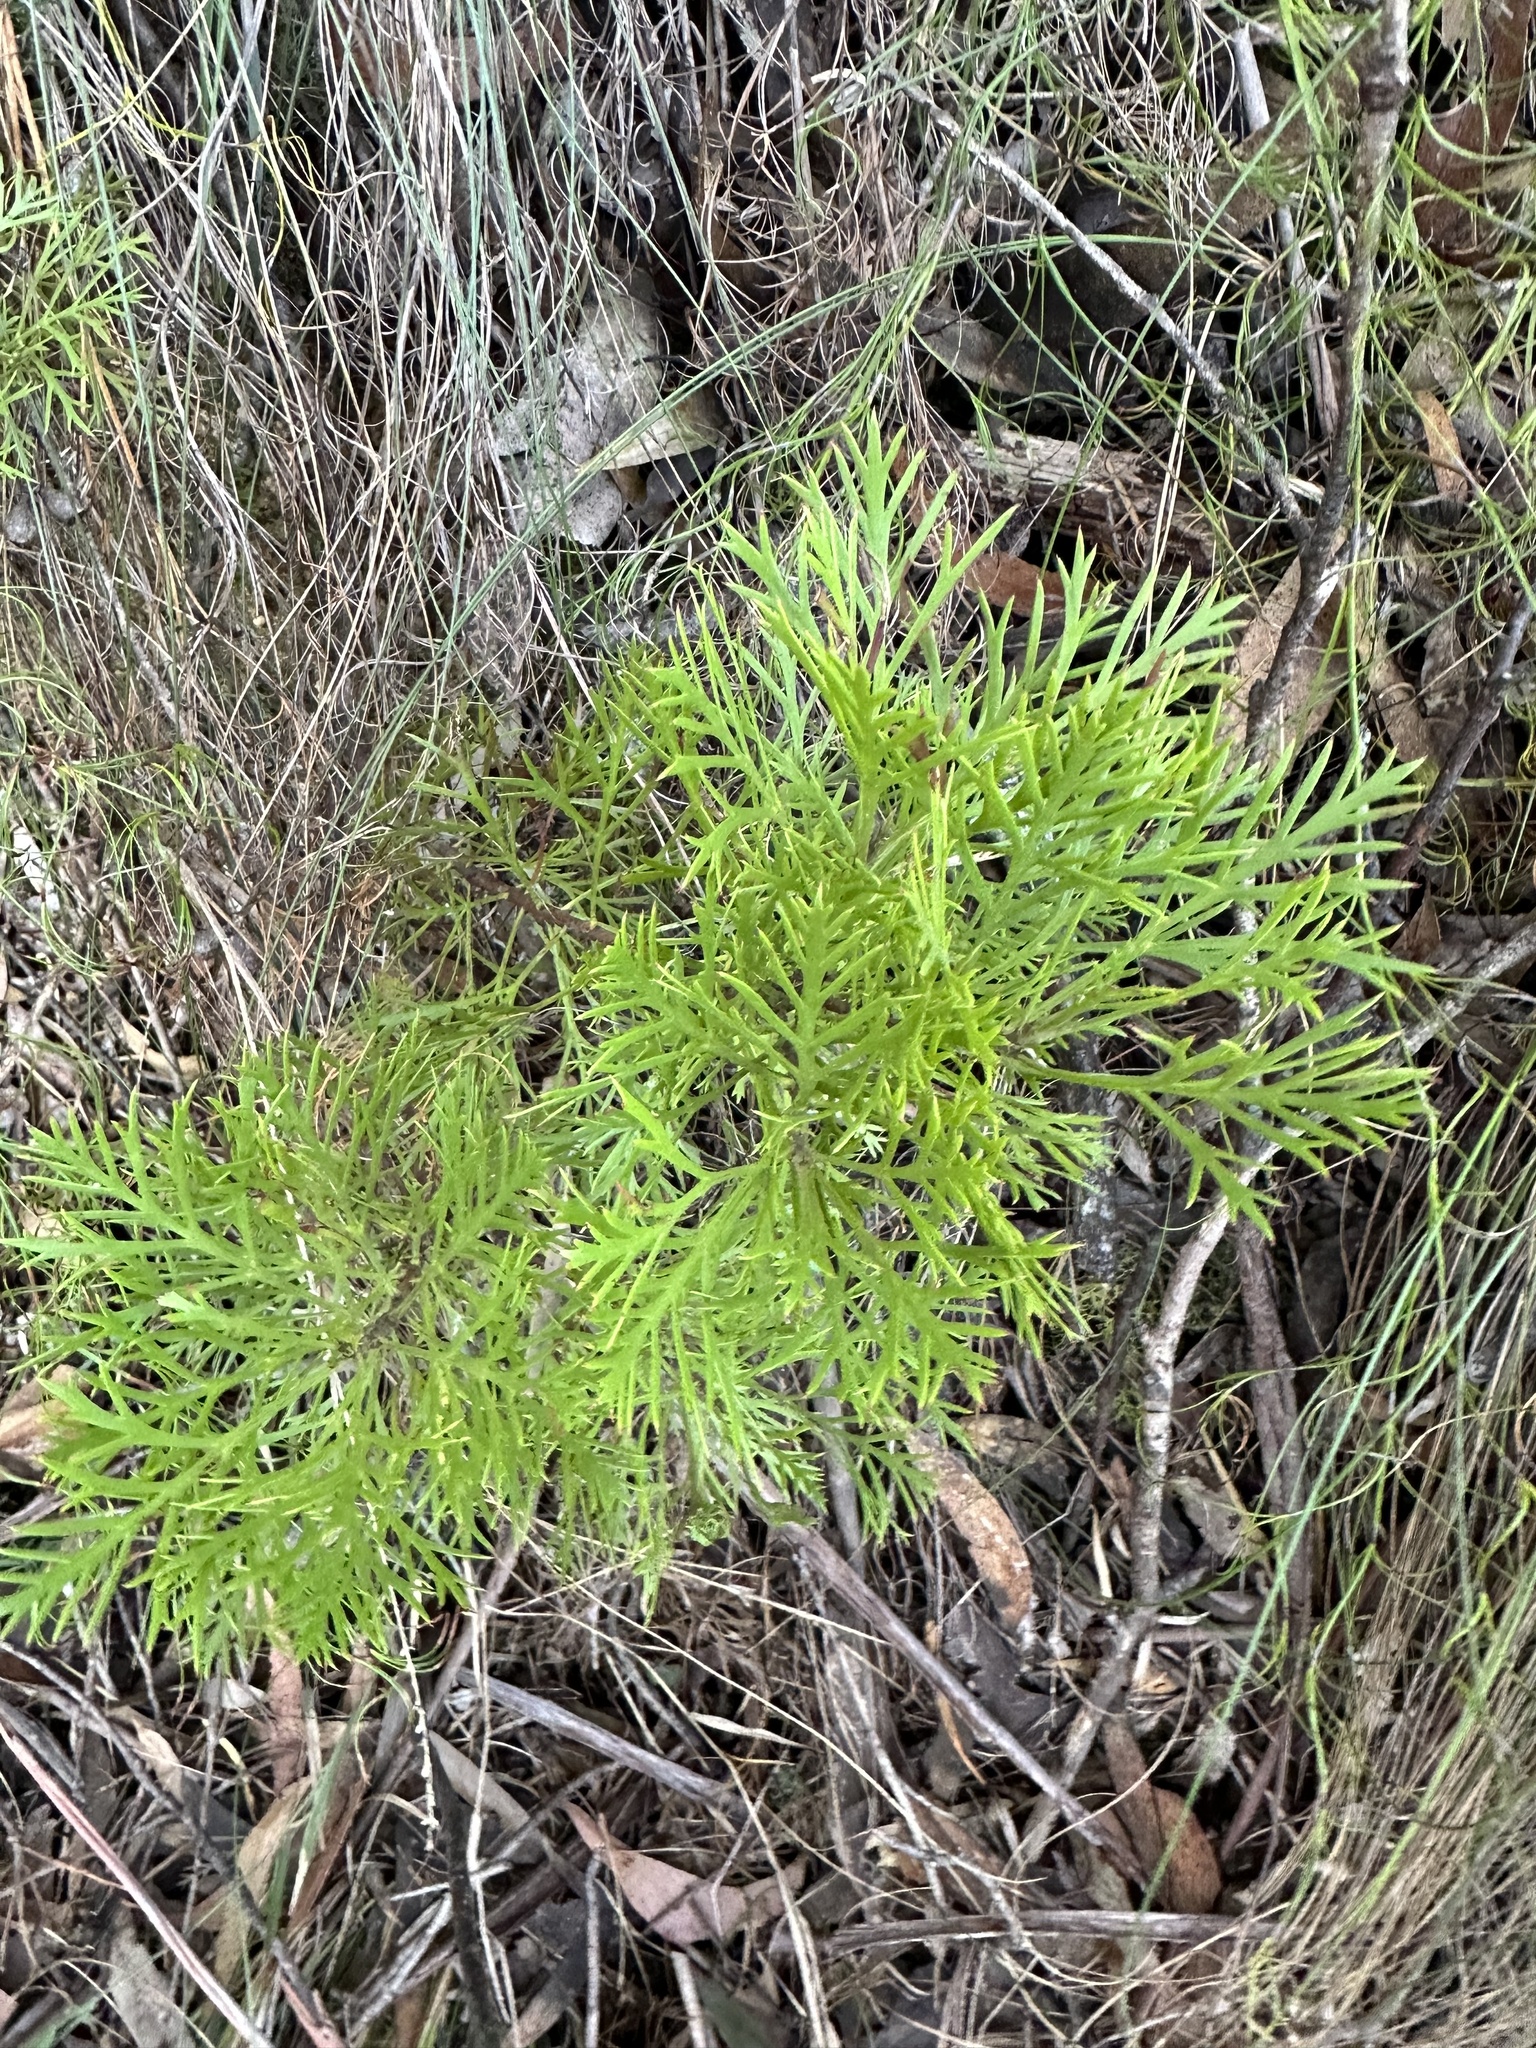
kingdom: Plantae
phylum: Tracheophyta
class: Magnoliopsida
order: Proteales
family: Proteaceae
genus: Isopogon
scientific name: Isopogon anemonifolius
